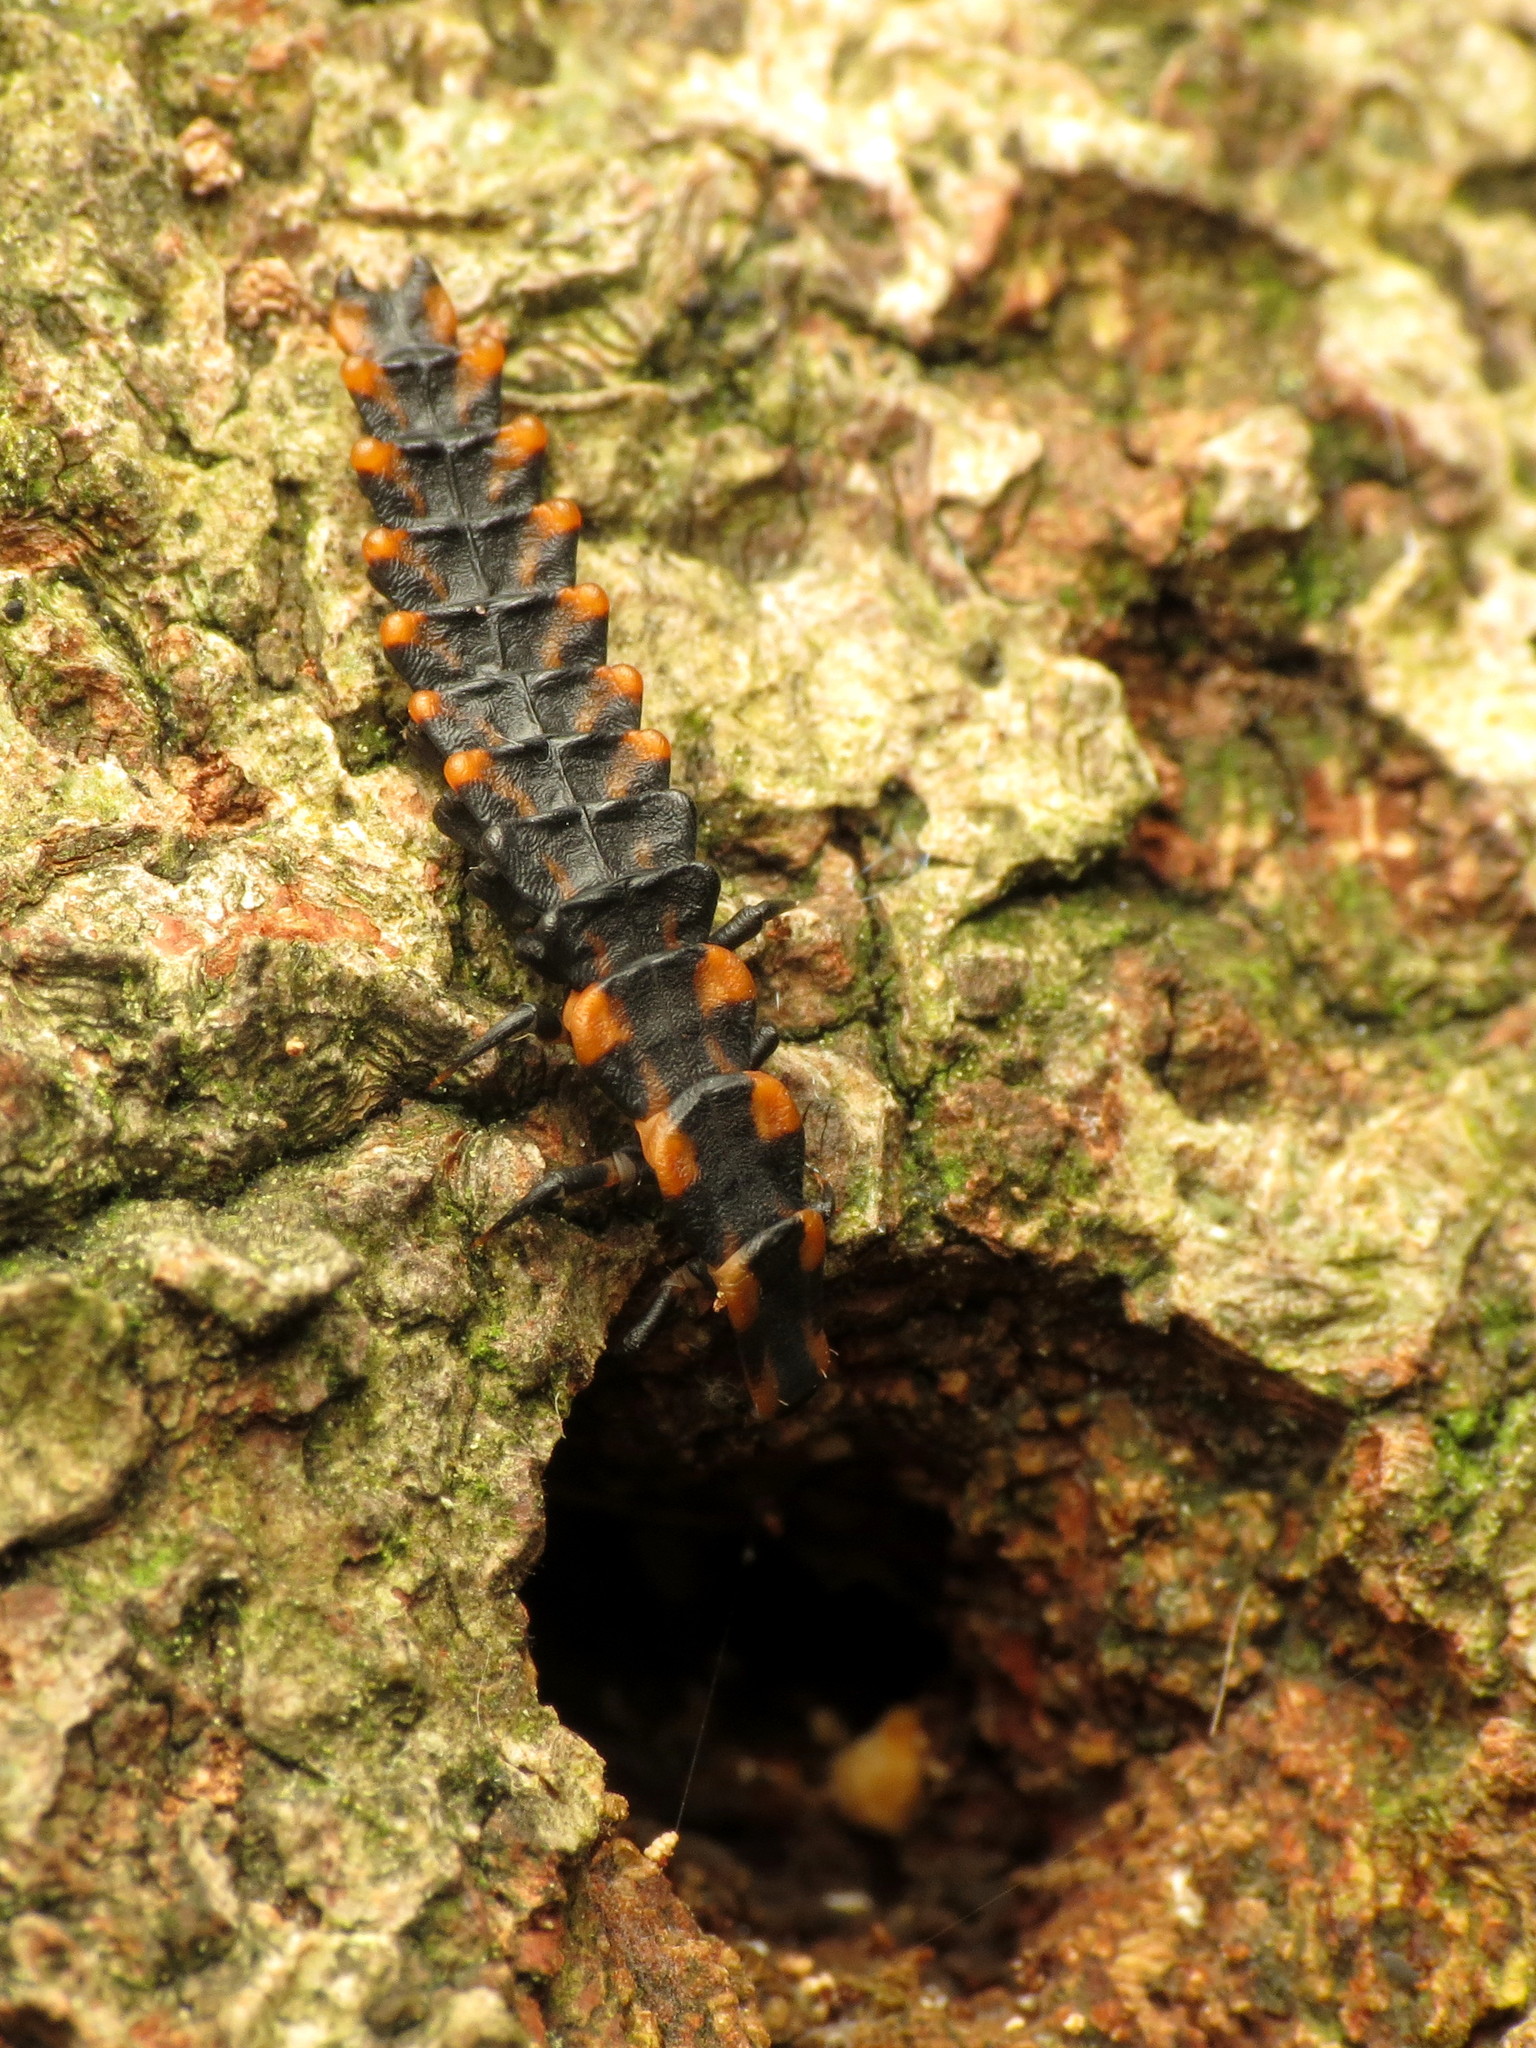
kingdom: Animalia
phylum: Arthropoda
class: Insecta
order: Coleoptera
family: Lycidae
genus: Calopteron
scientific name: Calopteron
